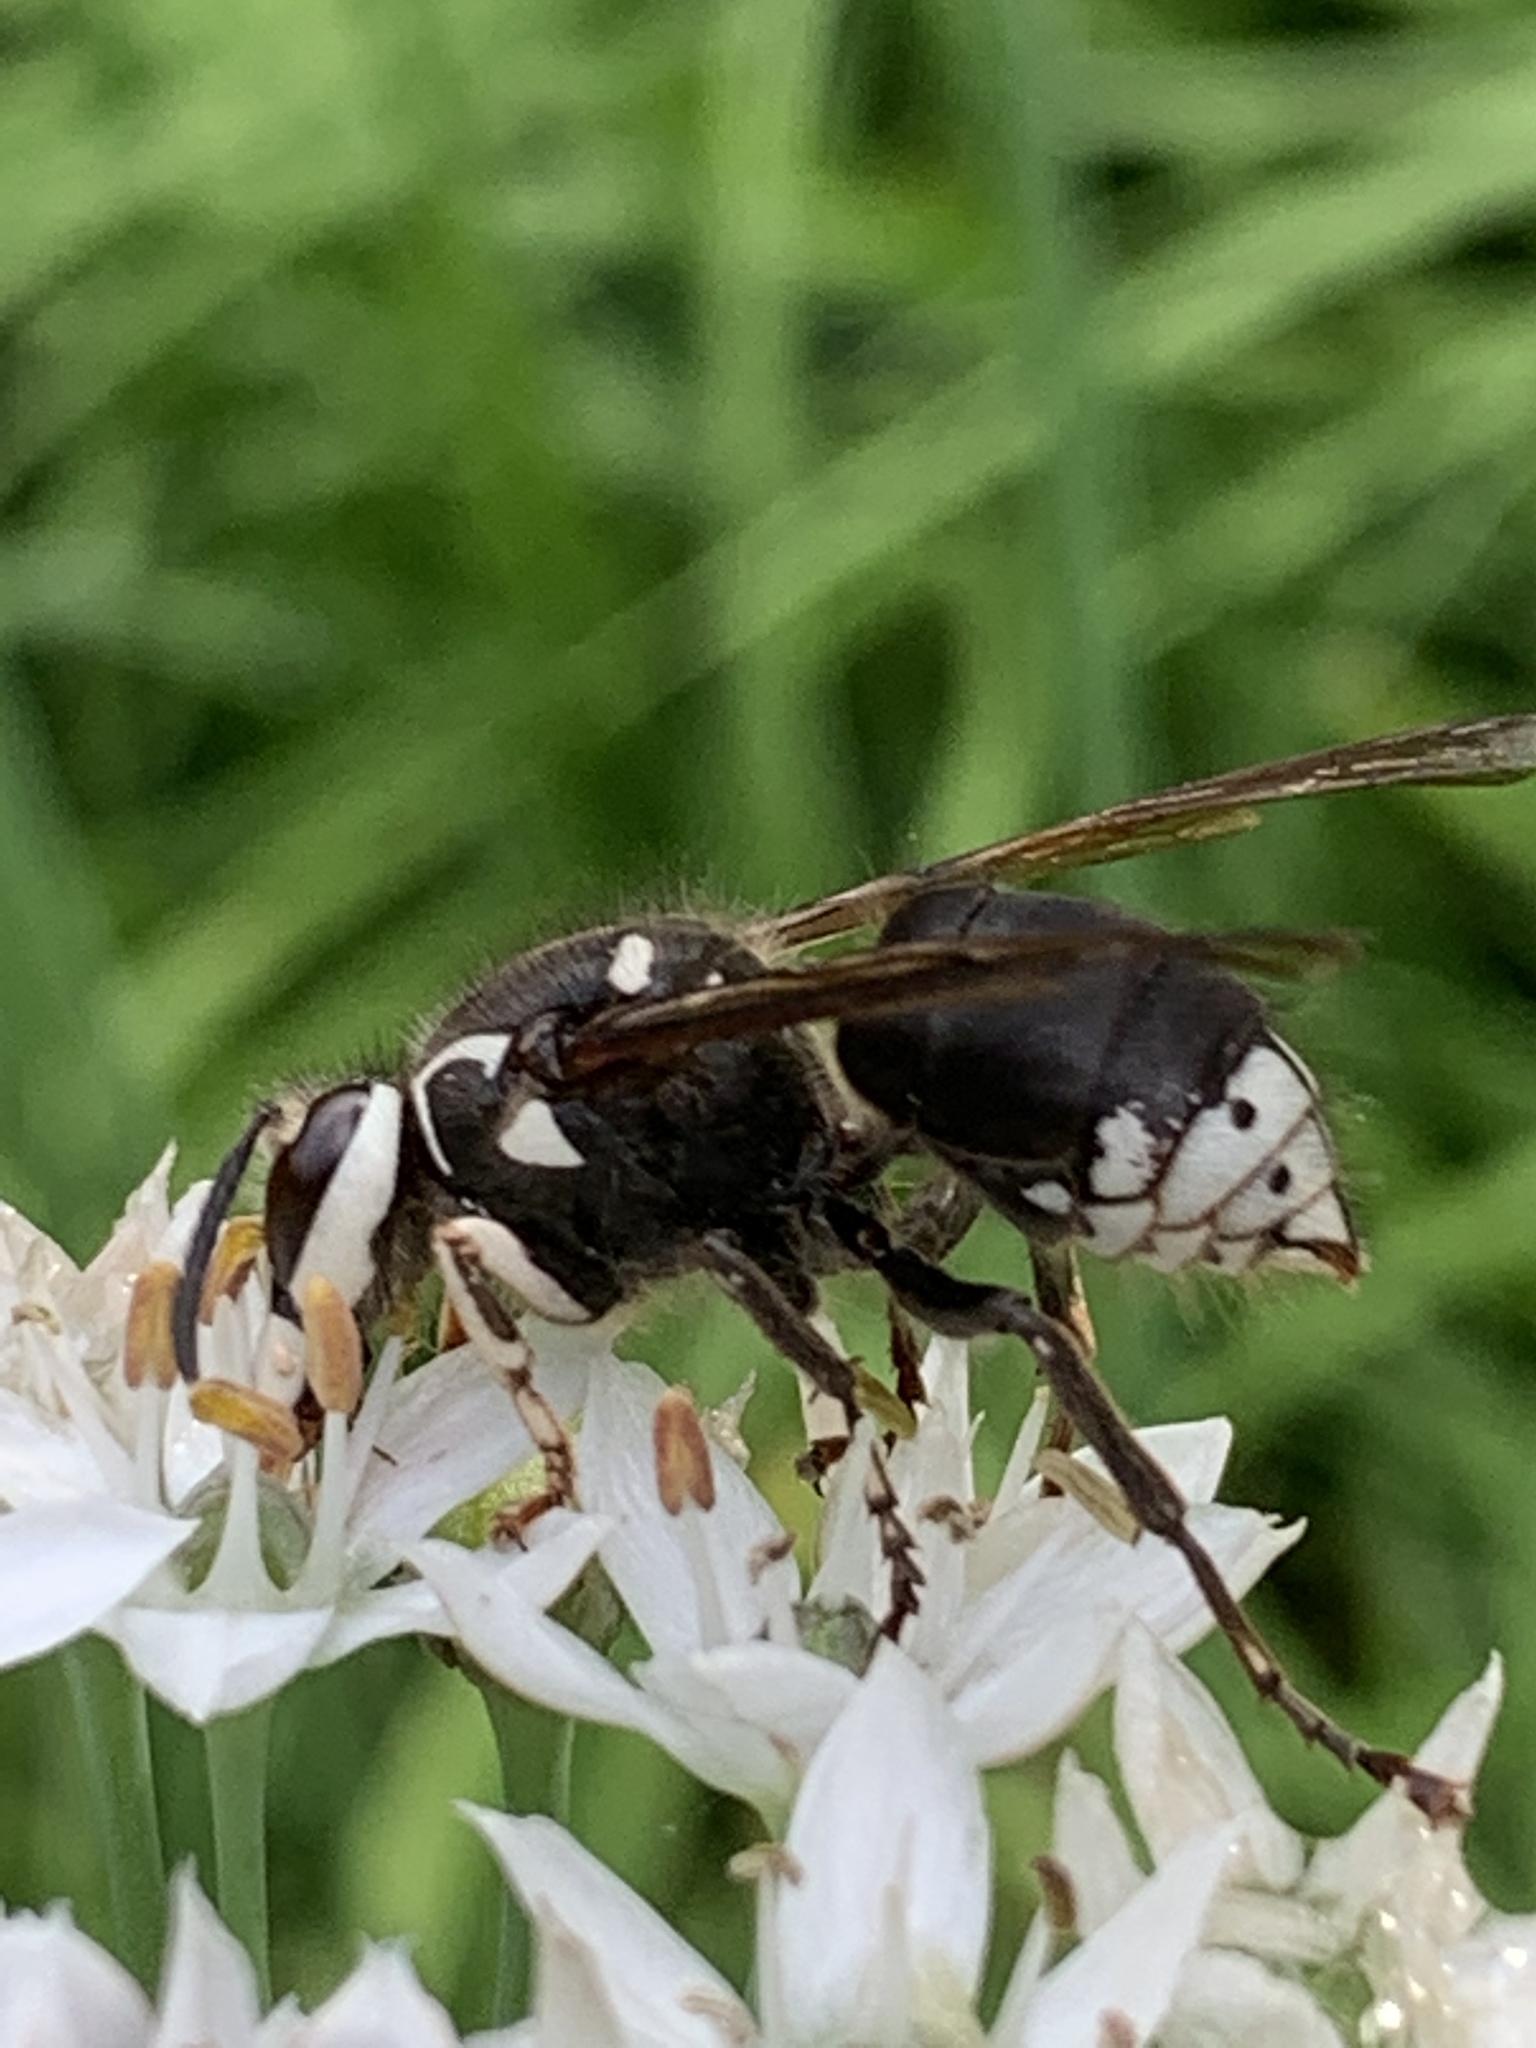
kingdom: Animalia
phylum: Arthropoda
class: Insecta
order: Hymenoptera
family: Vespidae
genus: Dolichovespula
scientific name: Dolichovespula maculata
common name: Bald-faced hornet
